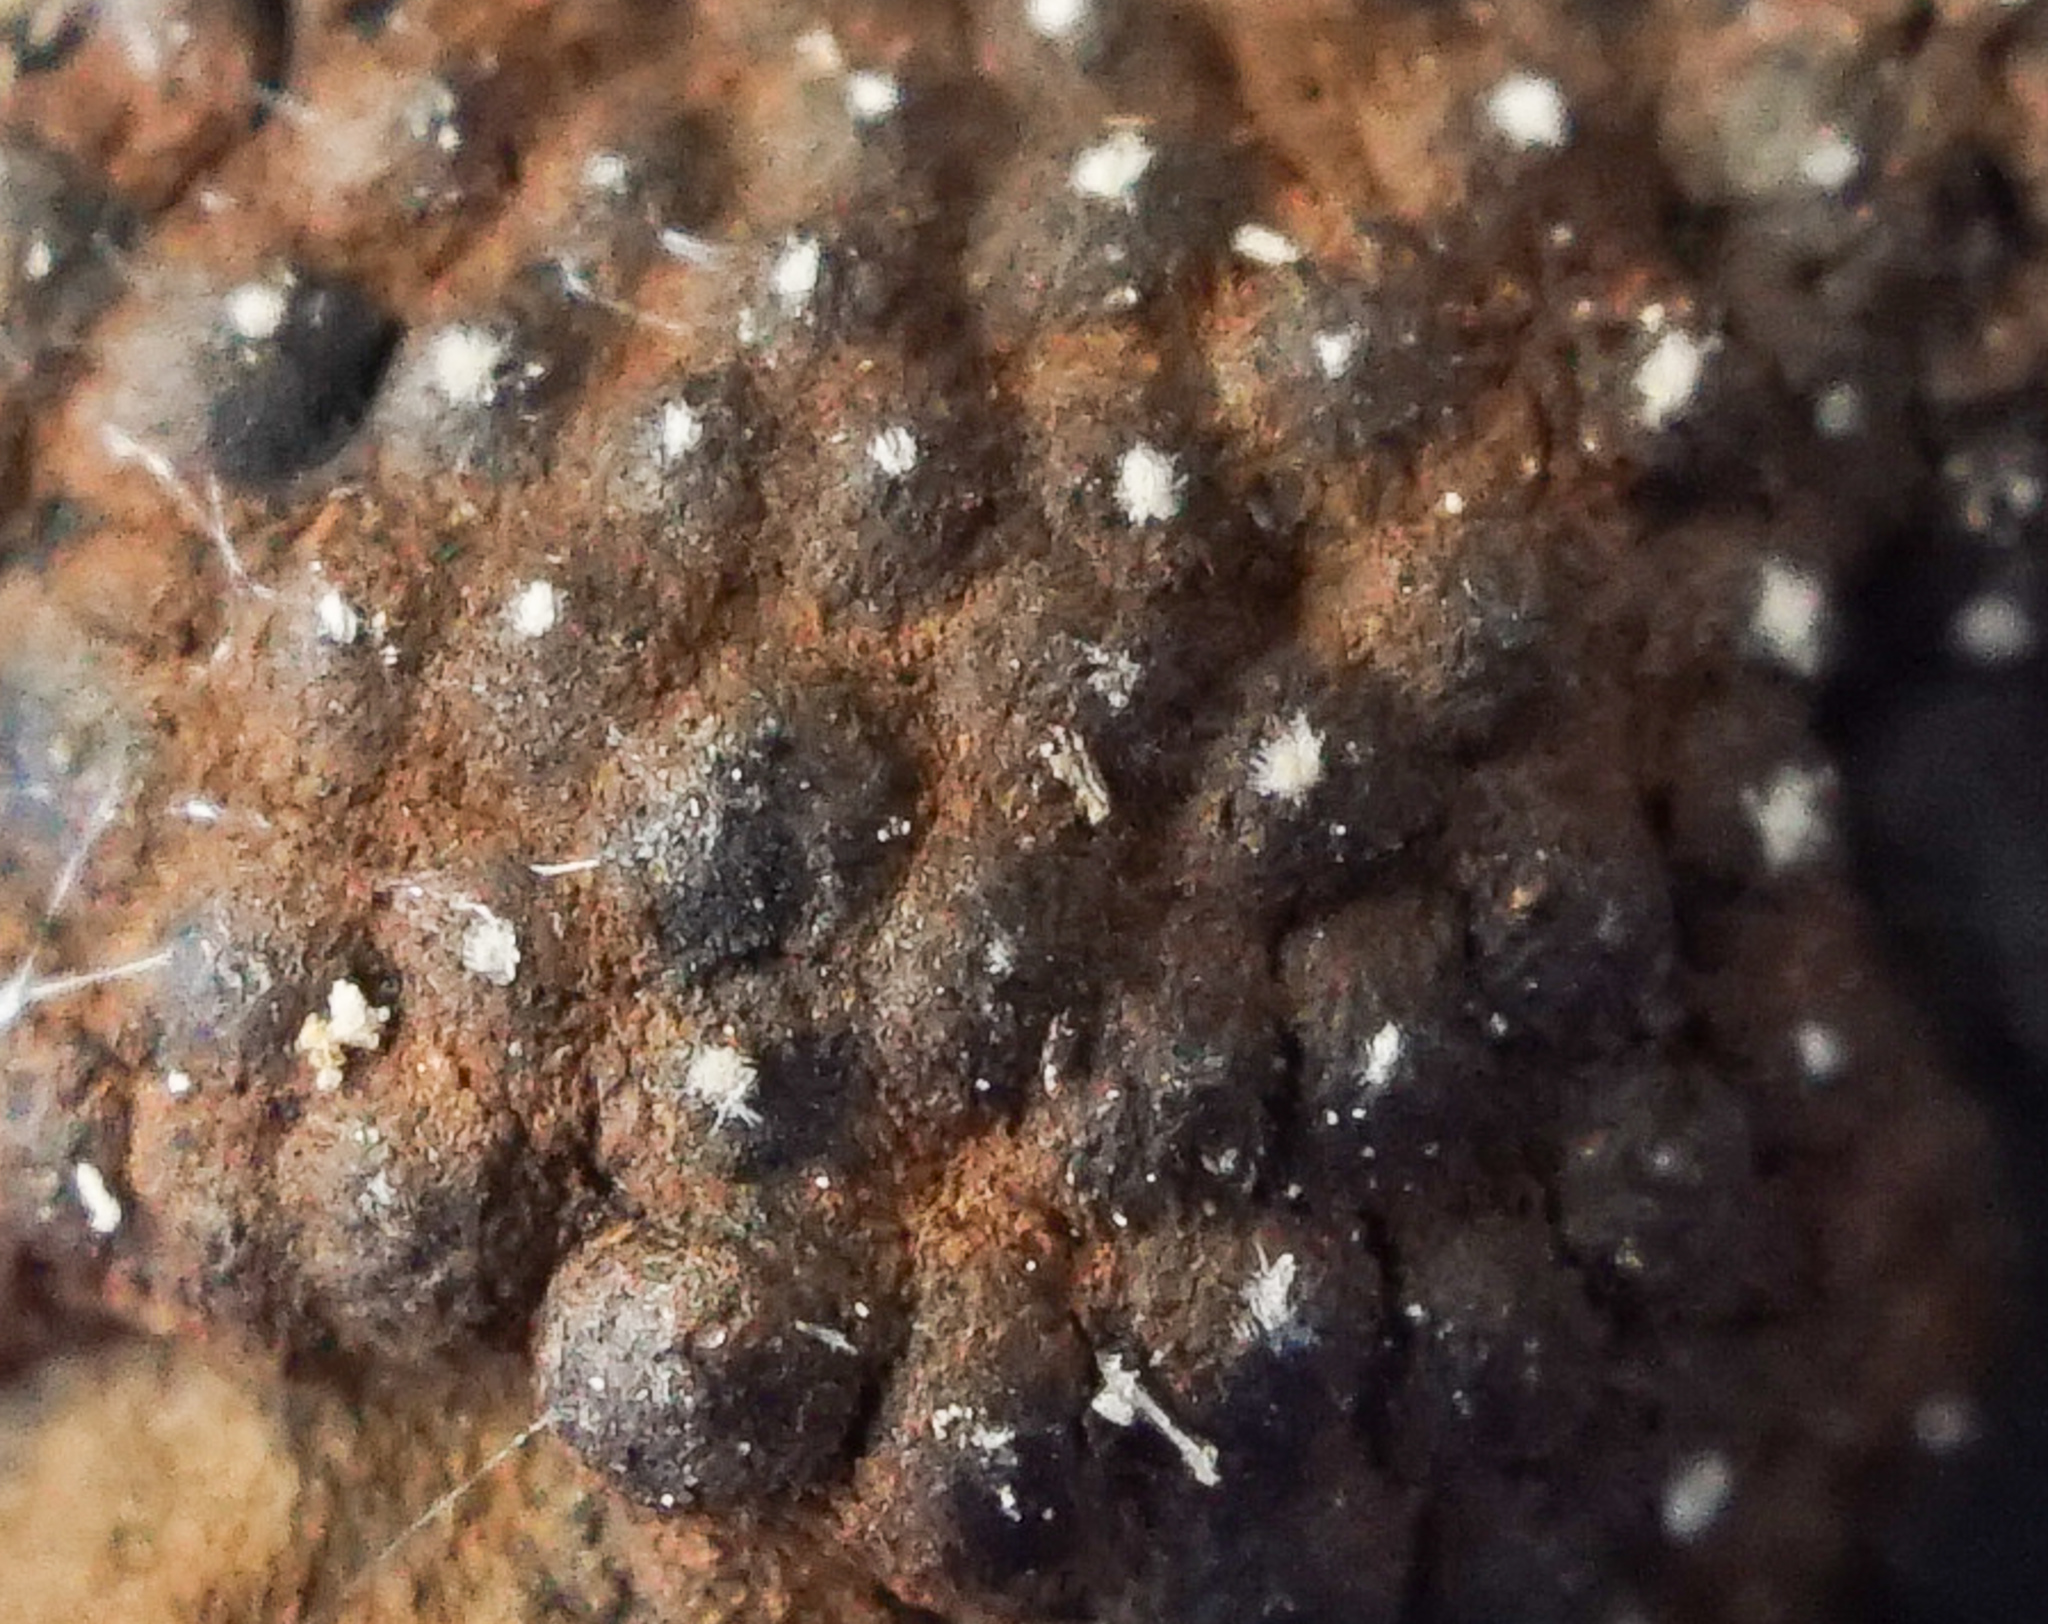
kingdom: Fungi
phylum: Ascomycota
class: Sordariomycetes
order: Xylariales
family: Hypoxylaceae
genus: Hypoxylon
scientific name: Hypoxylon fragiforme
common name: Beech woodwart
